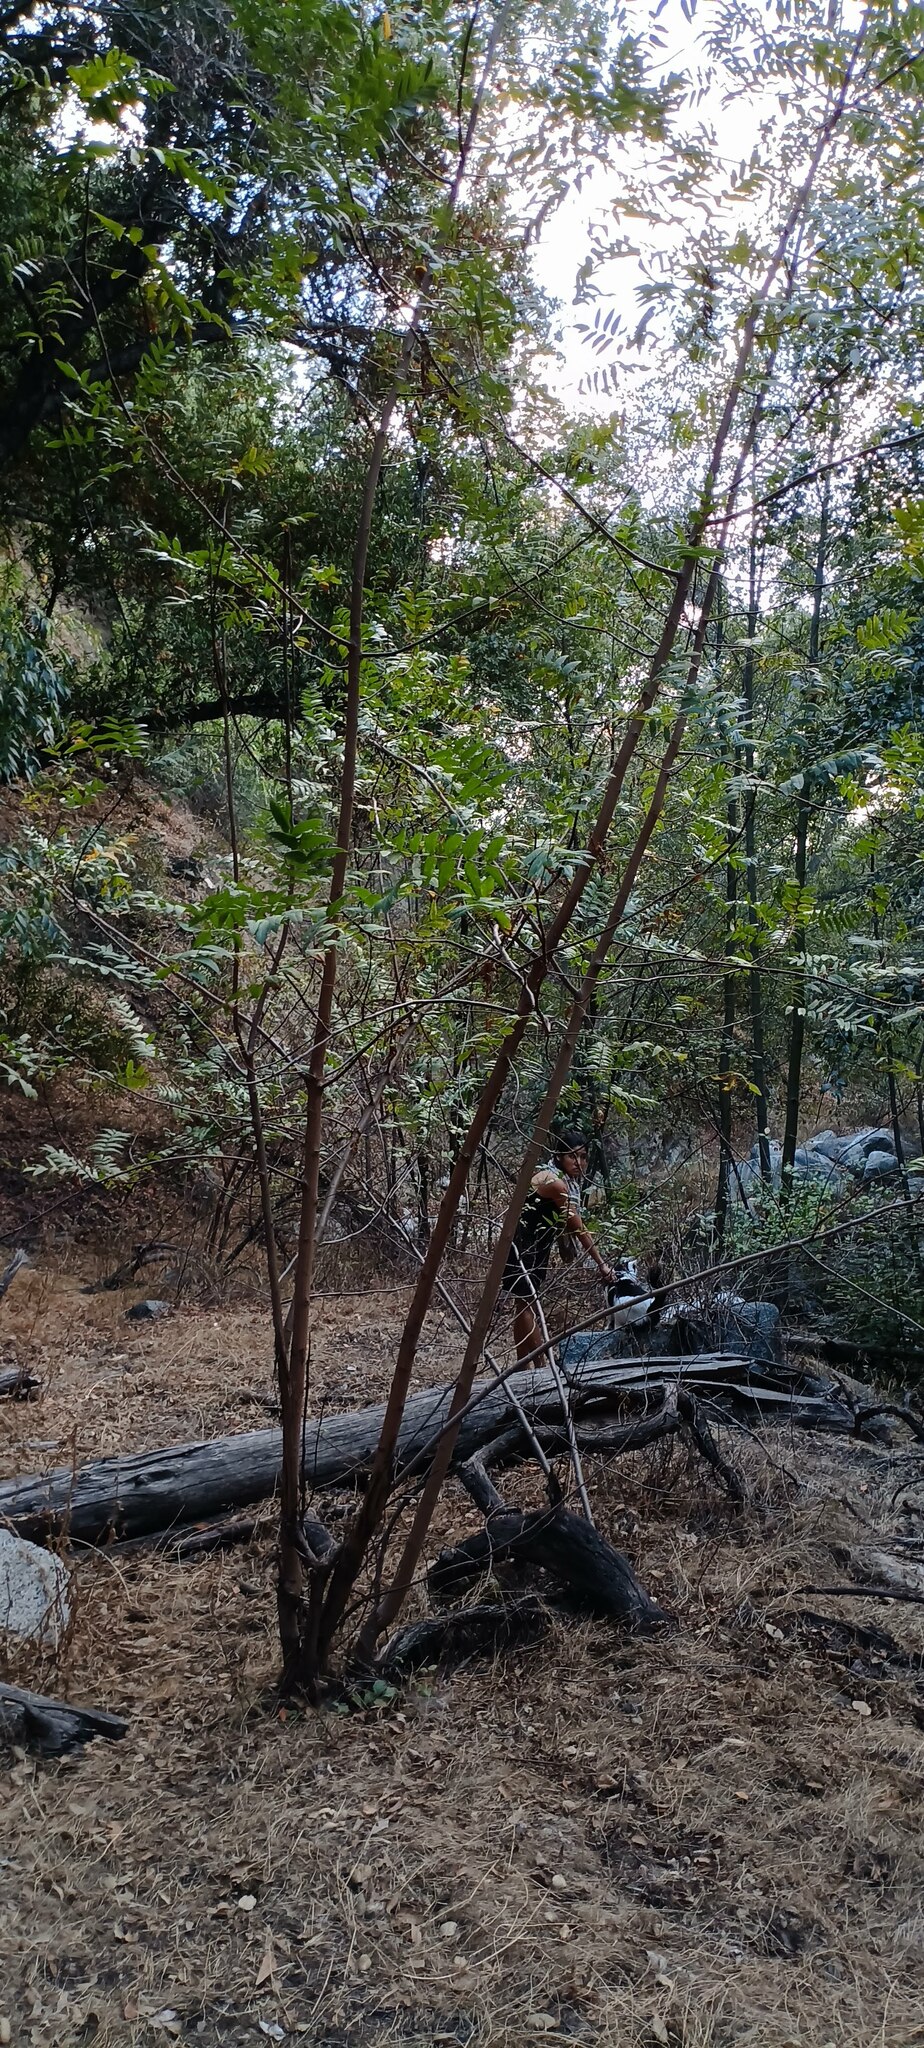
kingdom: Plantae
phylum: Tracheophyta
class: Magnoliopsida
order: Fagales
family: Juglandaceae
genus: Juglans
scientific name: Juglans californica
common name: Southern california black walnut
